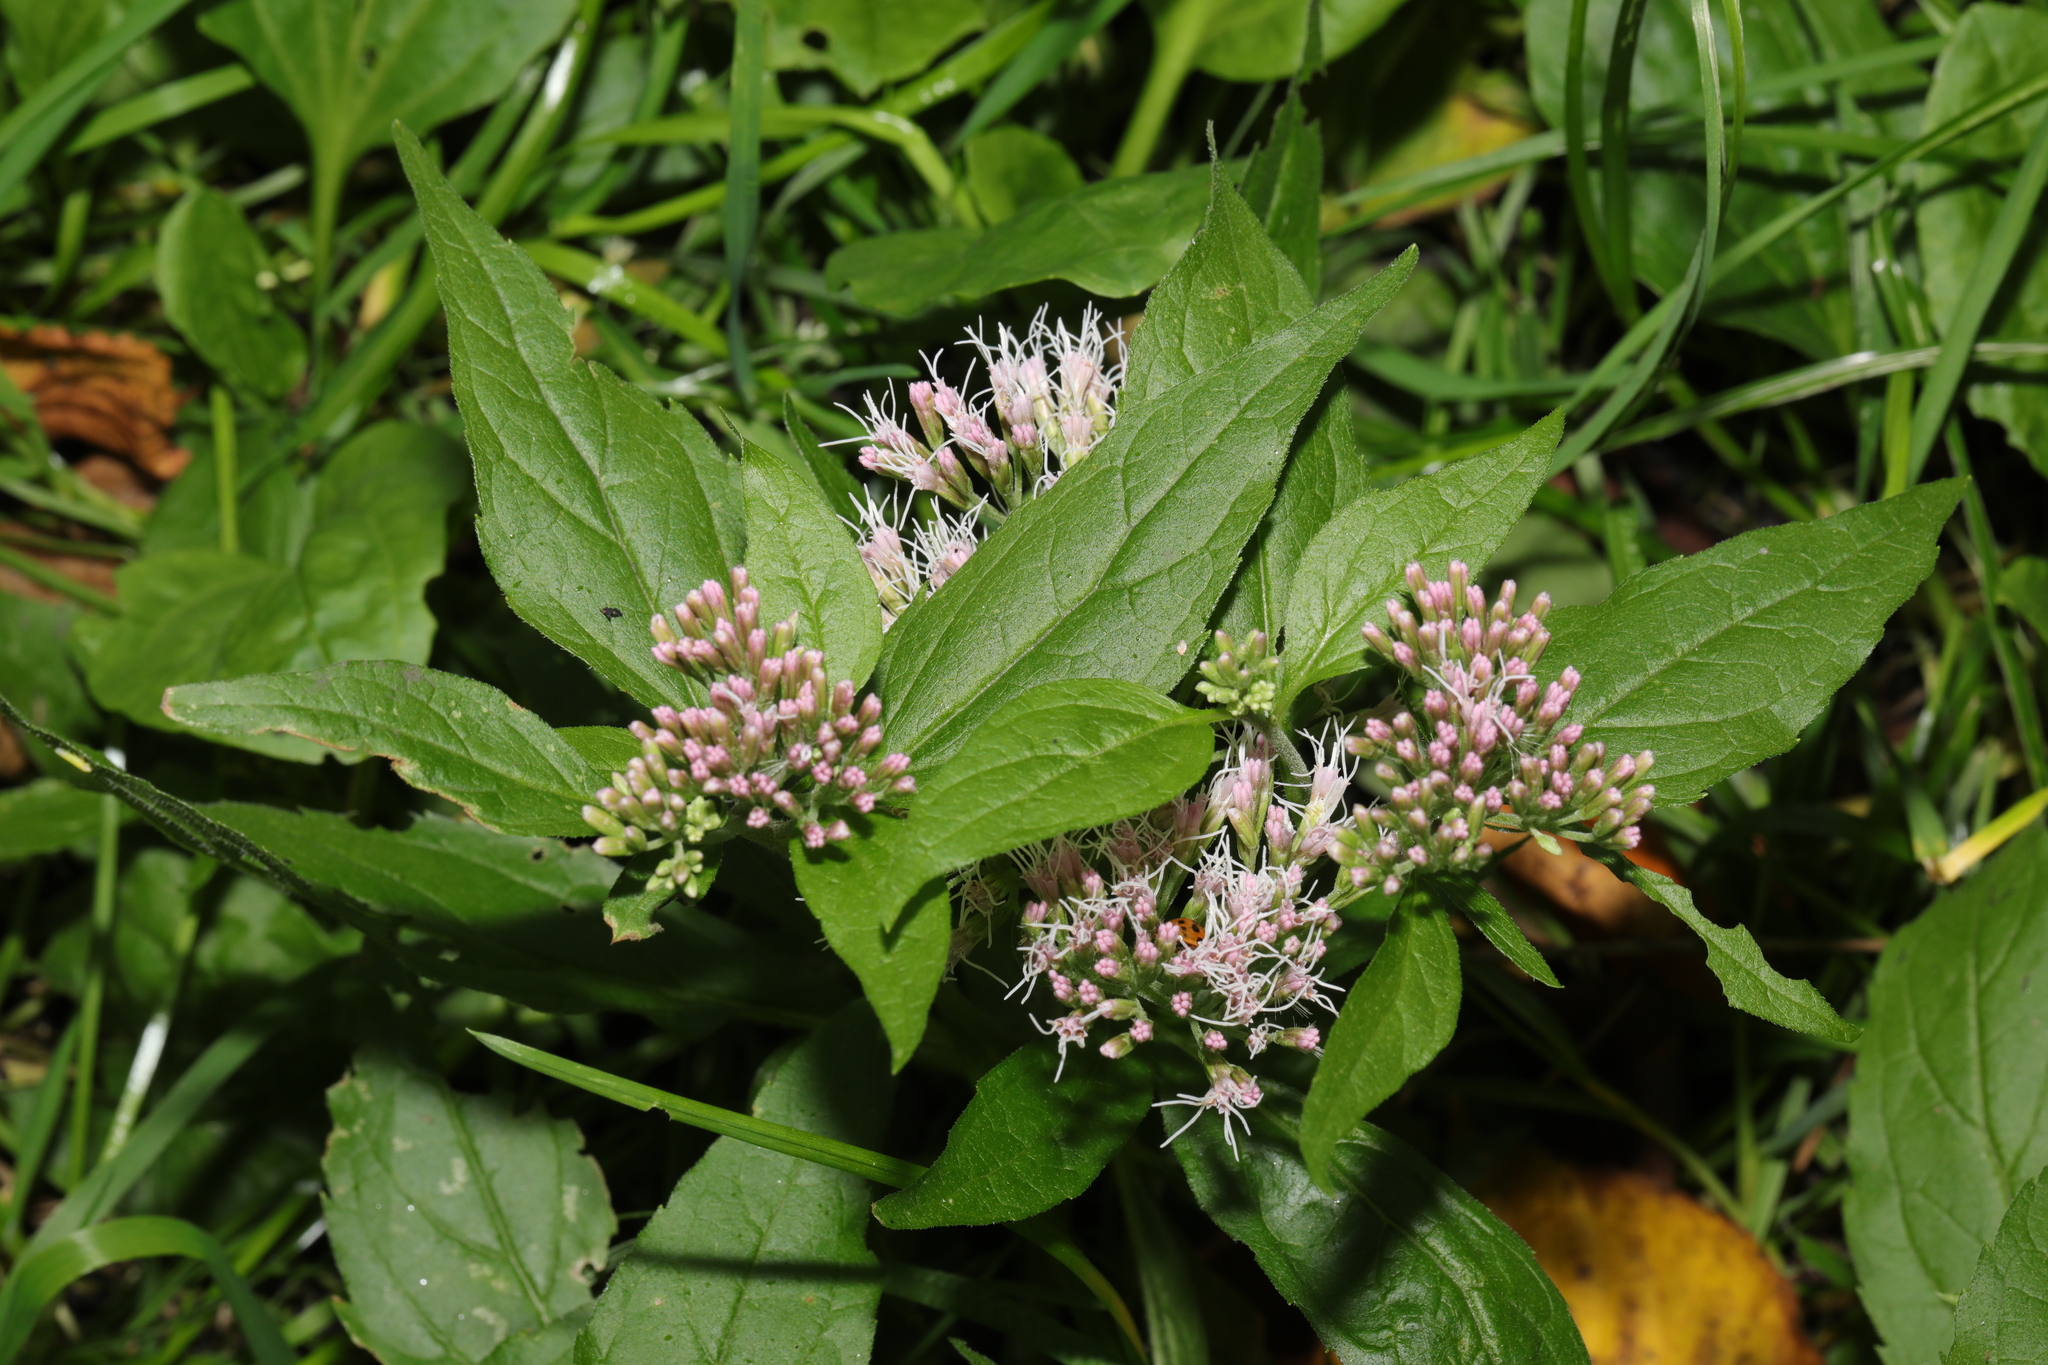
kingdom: Plantae
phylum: Tracheophyta
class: Magnoliopsida
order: Asterales
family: Asteraceae
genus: Eupatorium
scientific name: Eupatorium cannabinum
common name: Hemp-agrimony
